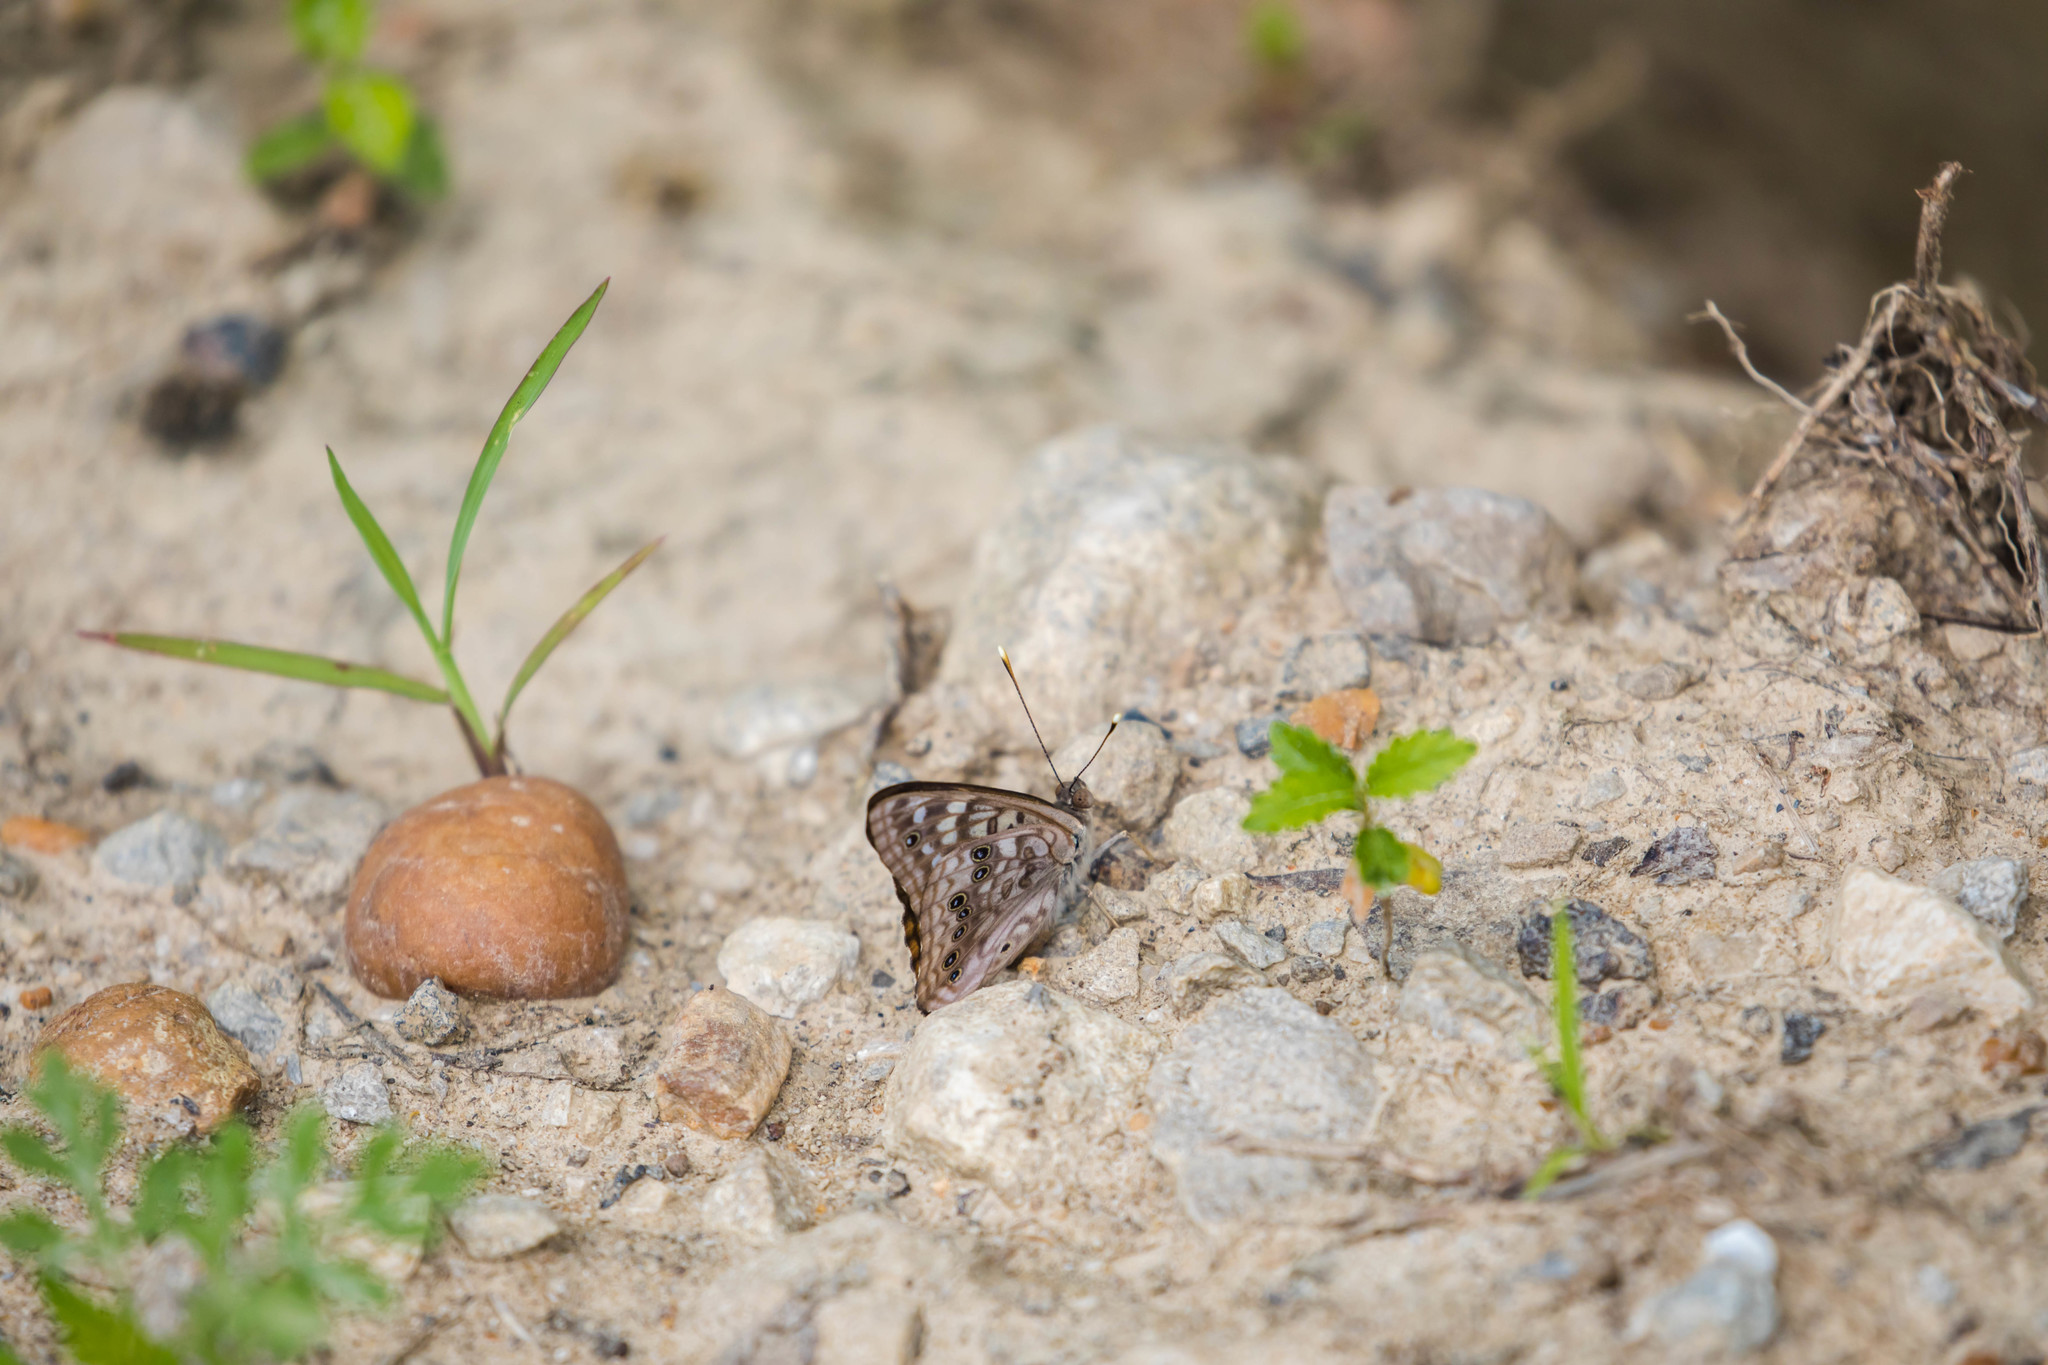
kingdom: Animalia
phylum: Arthropoda
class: Insecta
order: Lepidoptera
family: Nymphalidae
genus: Asterocampa
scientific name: Asterocampa celtis
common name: Hackberry emperor
